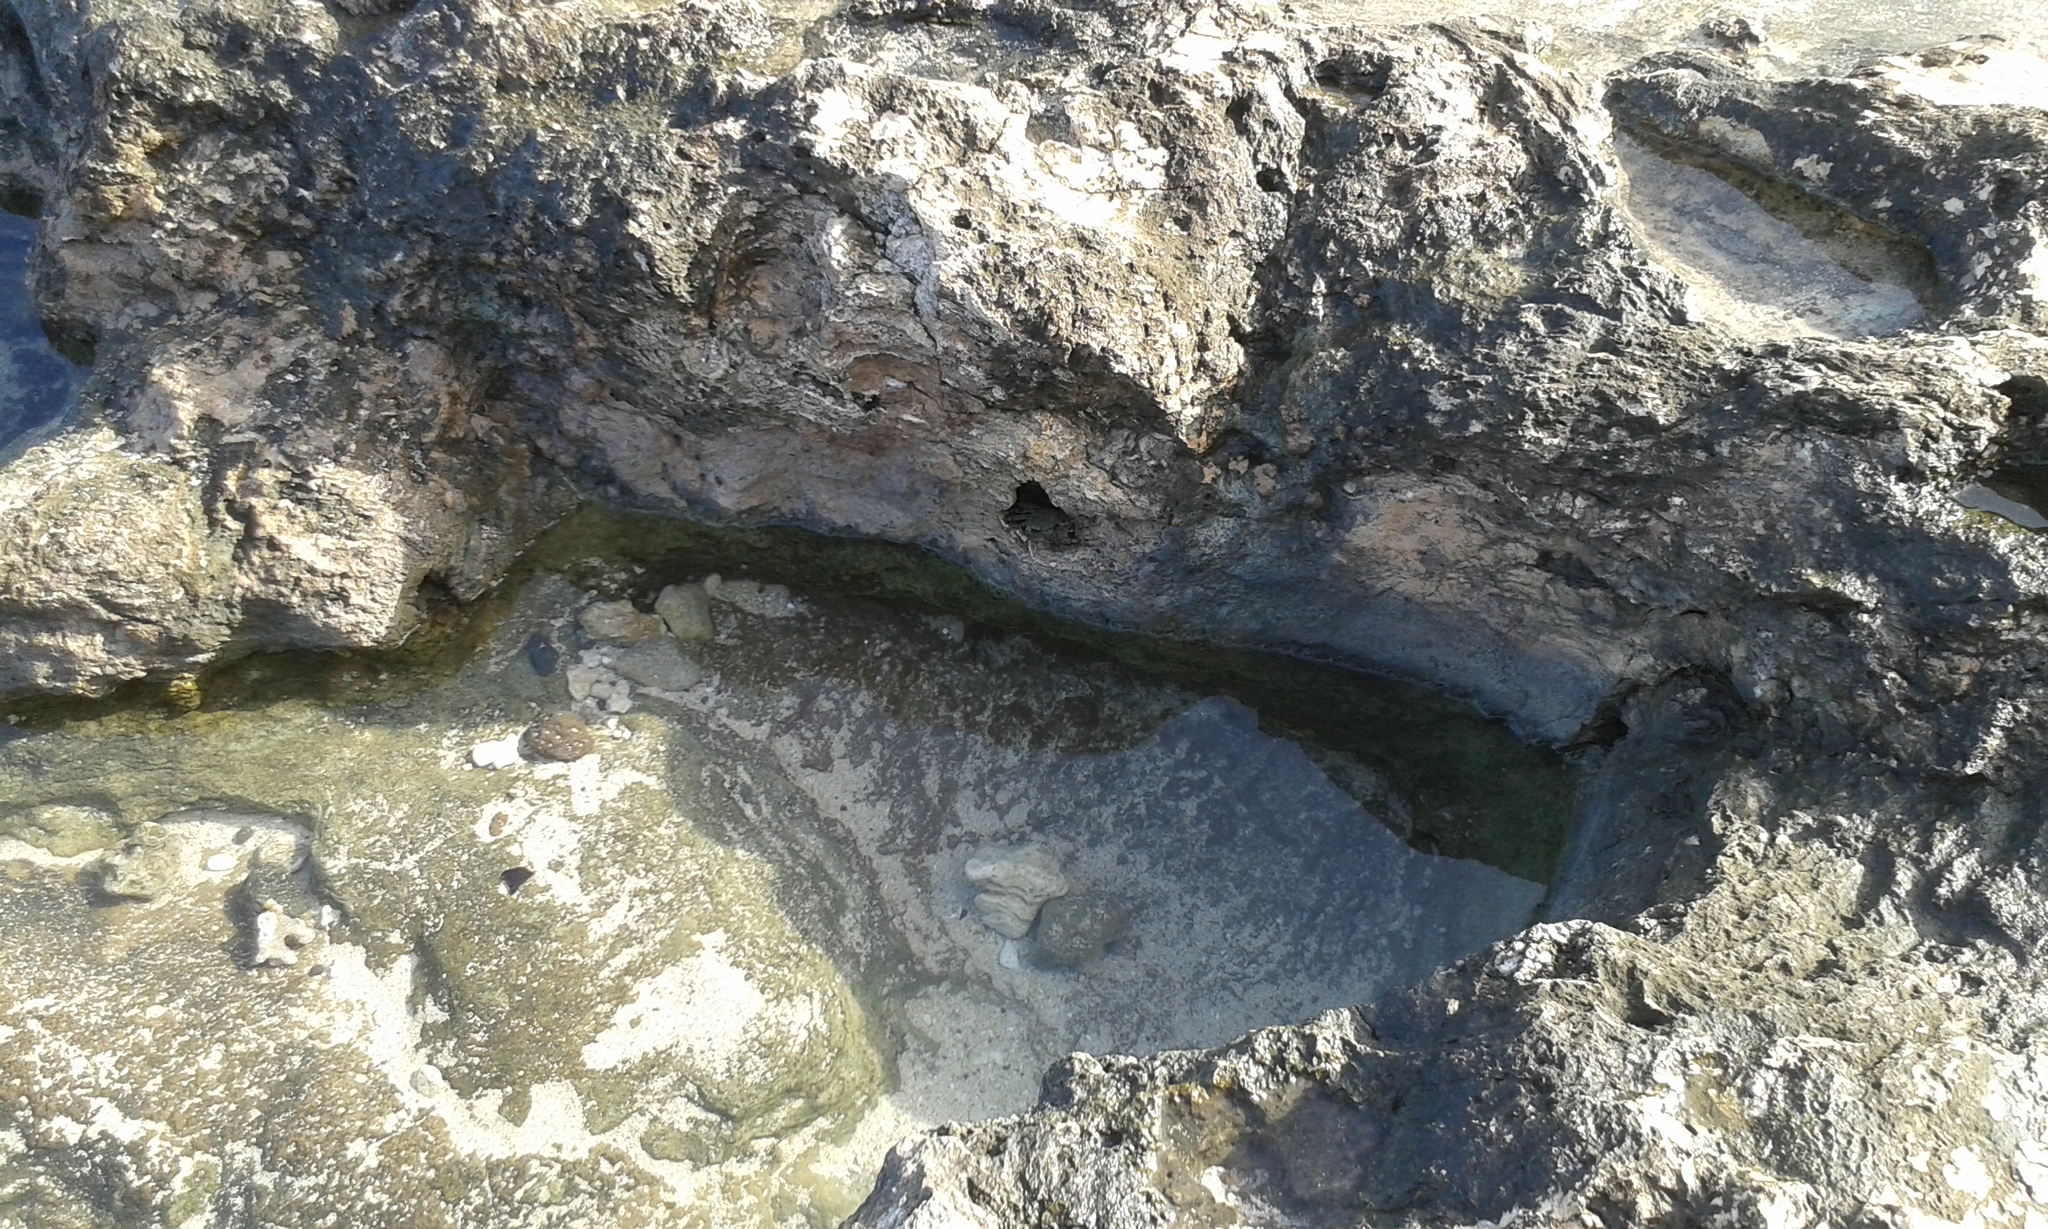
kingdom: Animalia
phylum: Arthropoda
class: Malacostraca
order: Decapoda
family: Grapsidae
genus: Grapsus
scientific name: Grapsus tenuicrustatus
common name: Natal lightfoot crab
